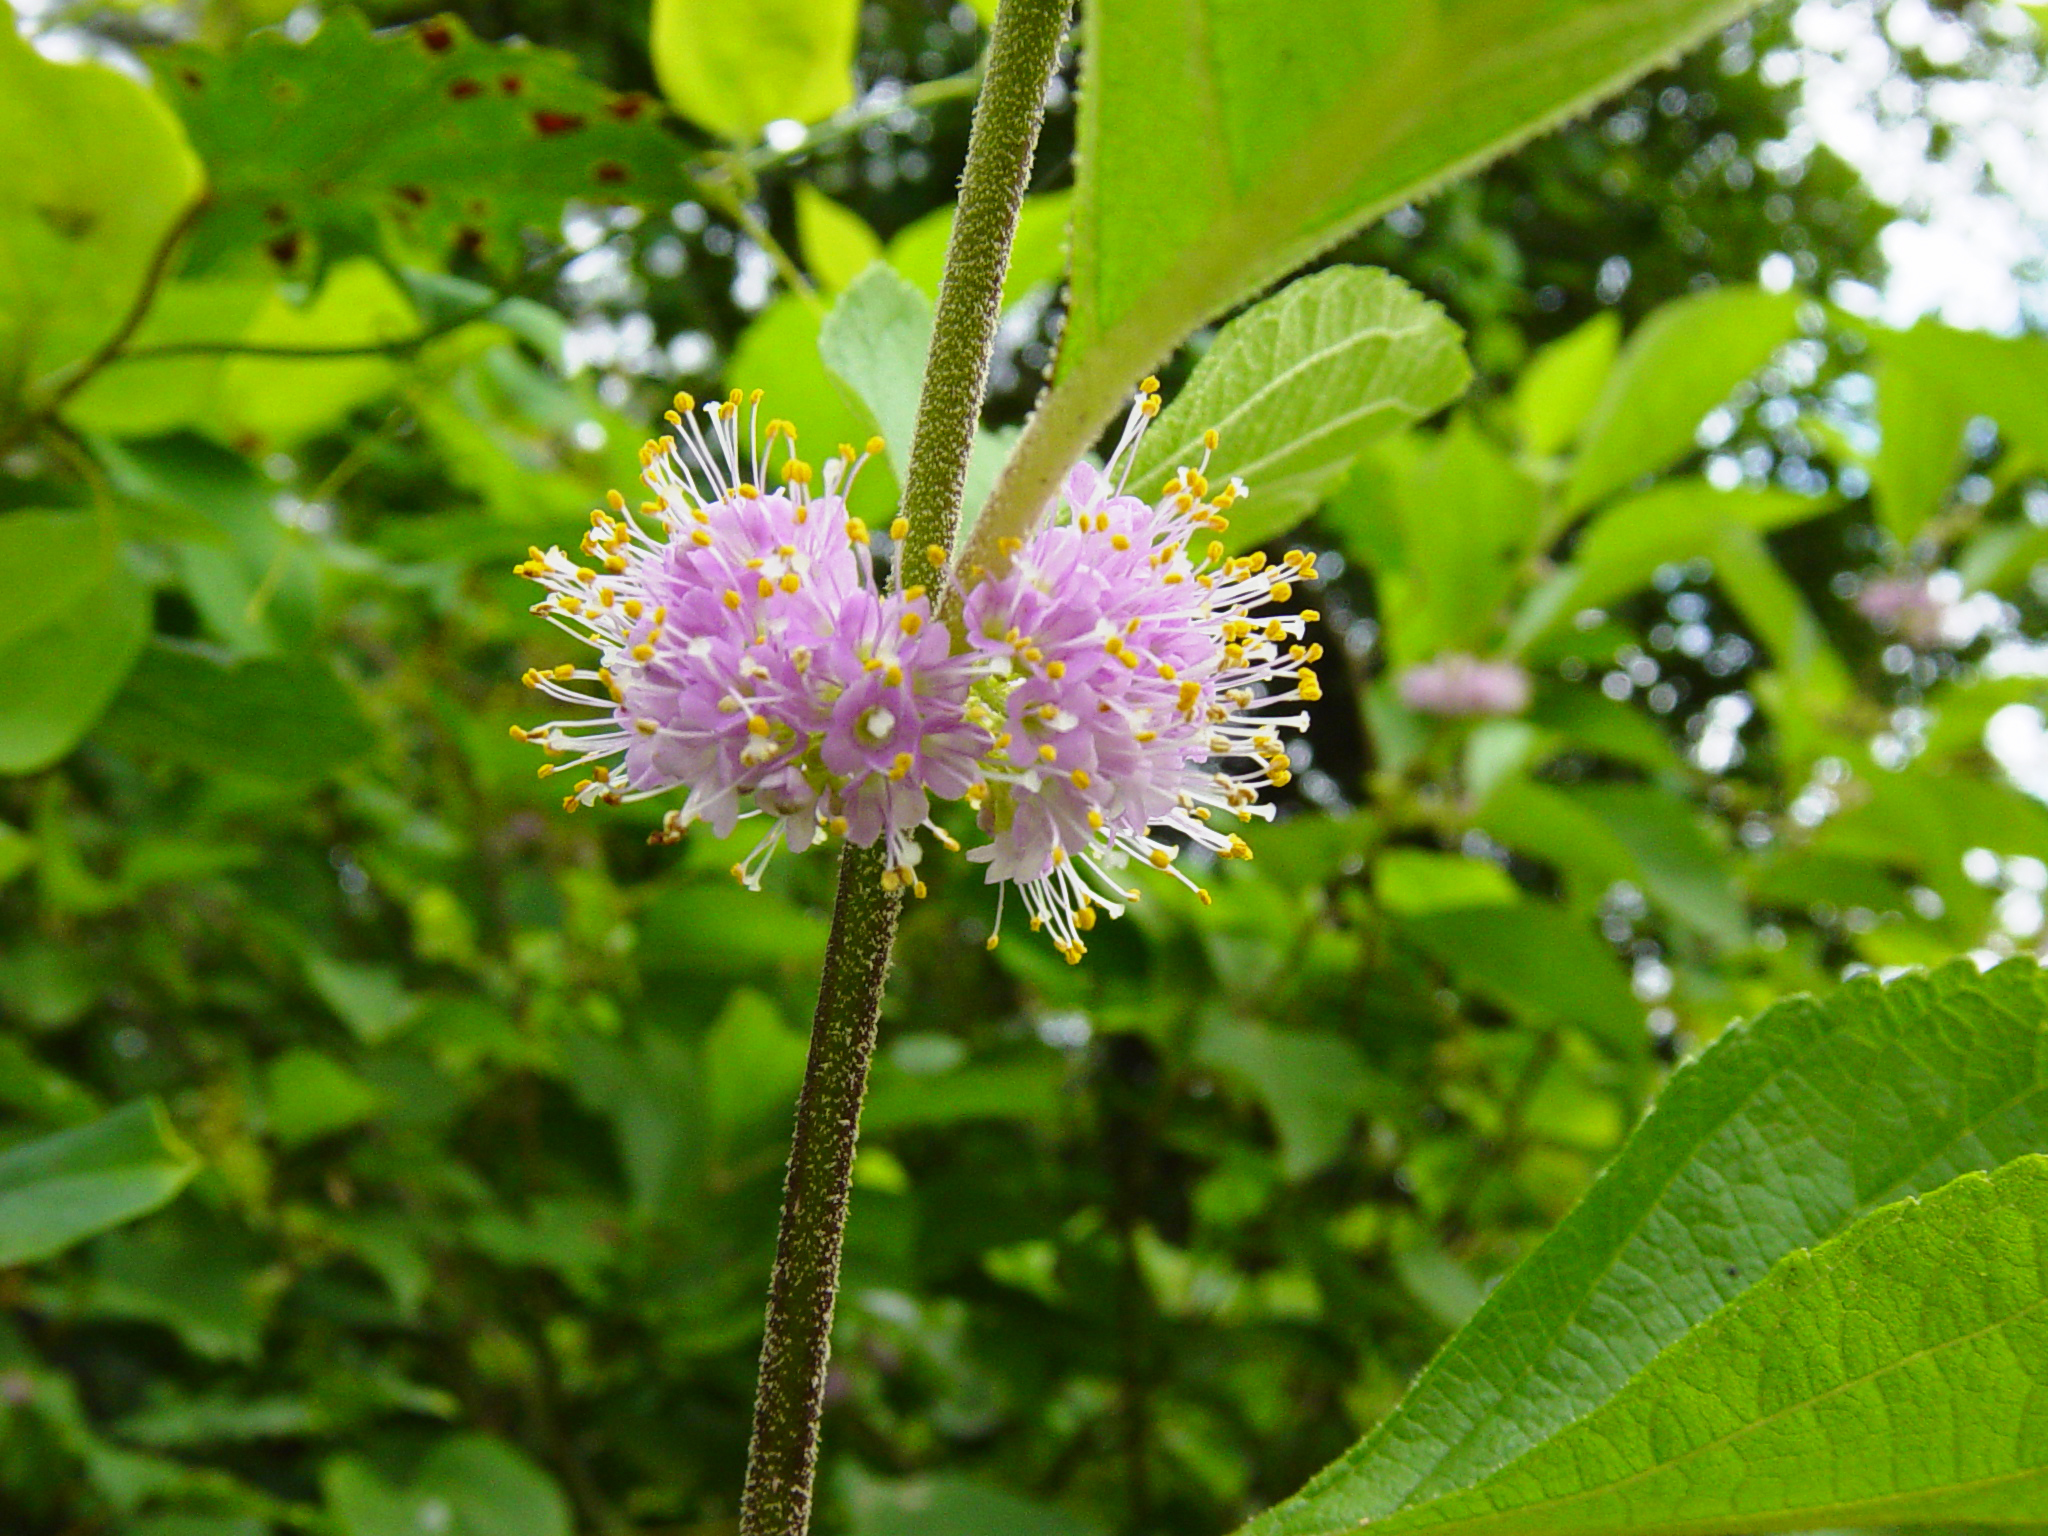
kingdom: Plantae
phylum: Tracheophyta
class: Magnoliopsida
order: Lamiales
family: Lamiaceae
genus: Callicarpa
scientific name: Callicarpa americana
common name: American beautyberry
